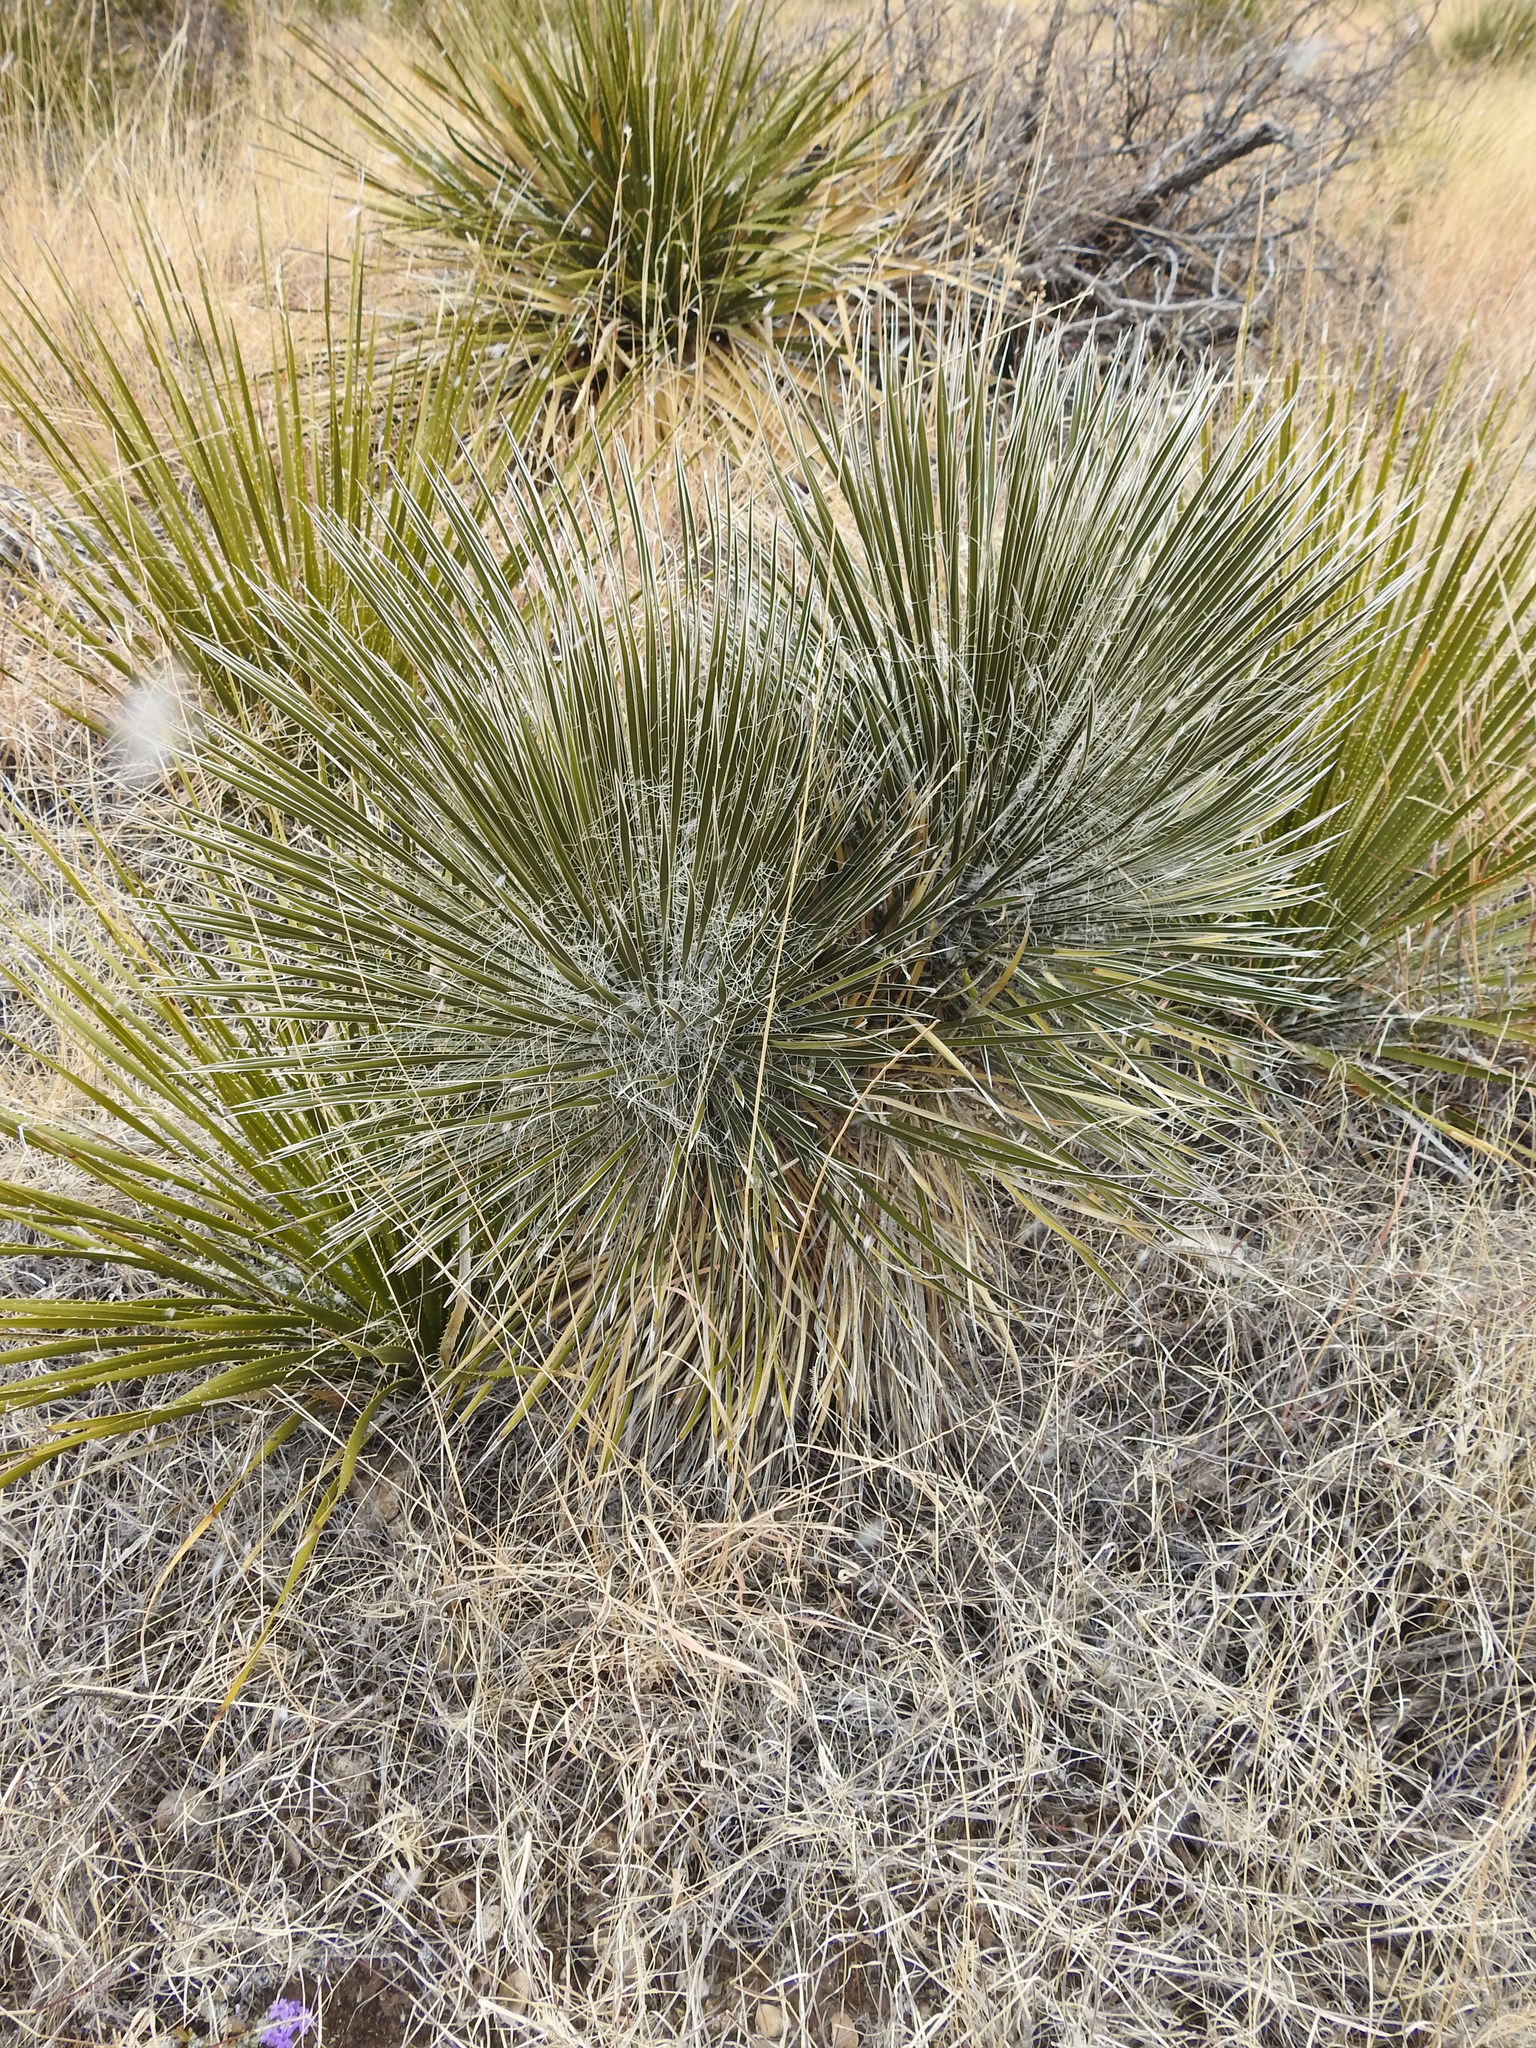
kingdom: Plantae
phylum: Tracheophyta
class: Liliopsida
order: Asparagales
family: Asparagaceae
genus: Yucca
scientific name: Yucca elata
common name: Palmella
